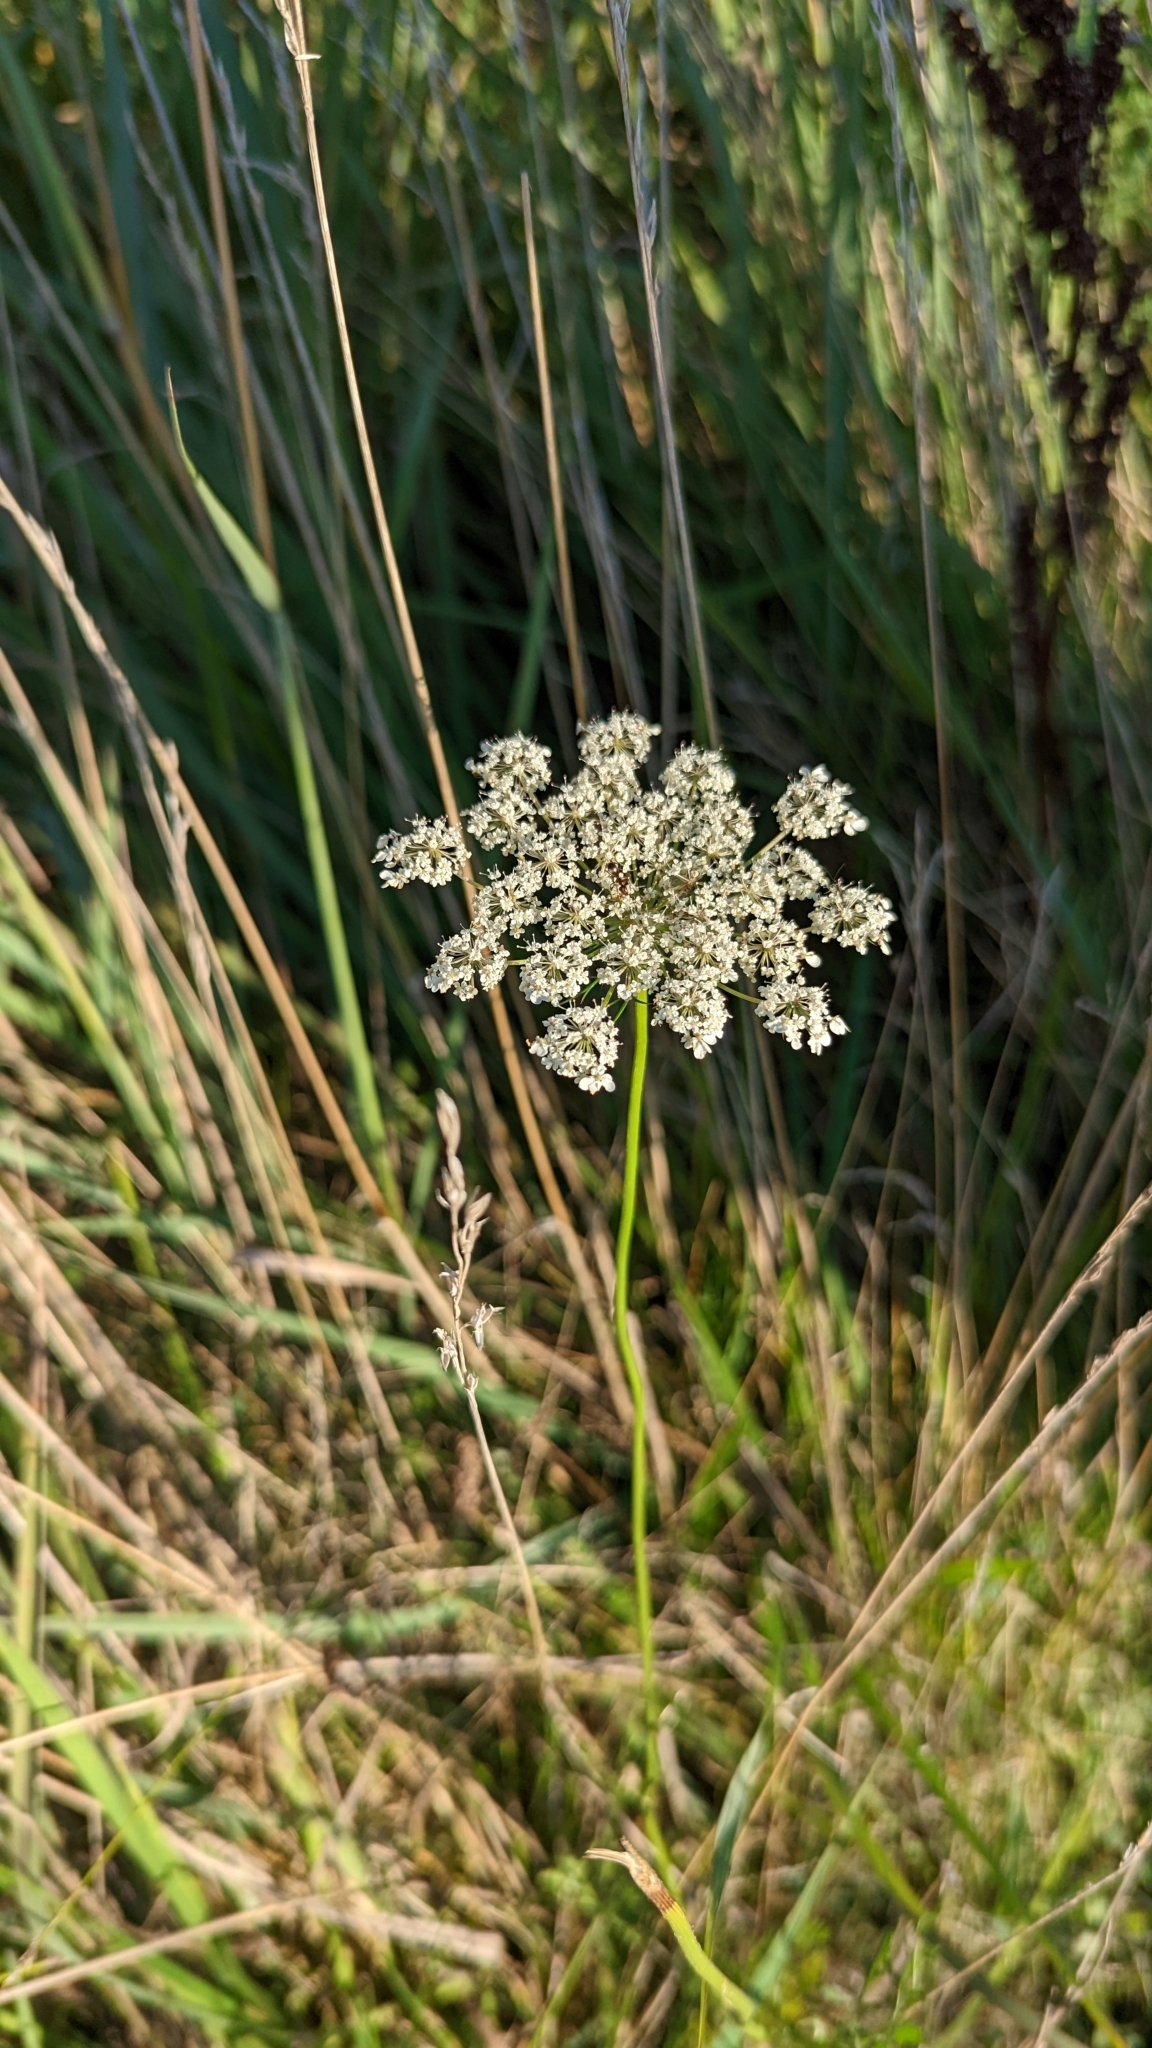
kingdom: Plantae
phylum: Tracheophyta
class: Magnoliopsida
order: Apiales
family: Apiaceae
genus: Daucus
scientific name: Daucus carota
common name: Wild carrot
